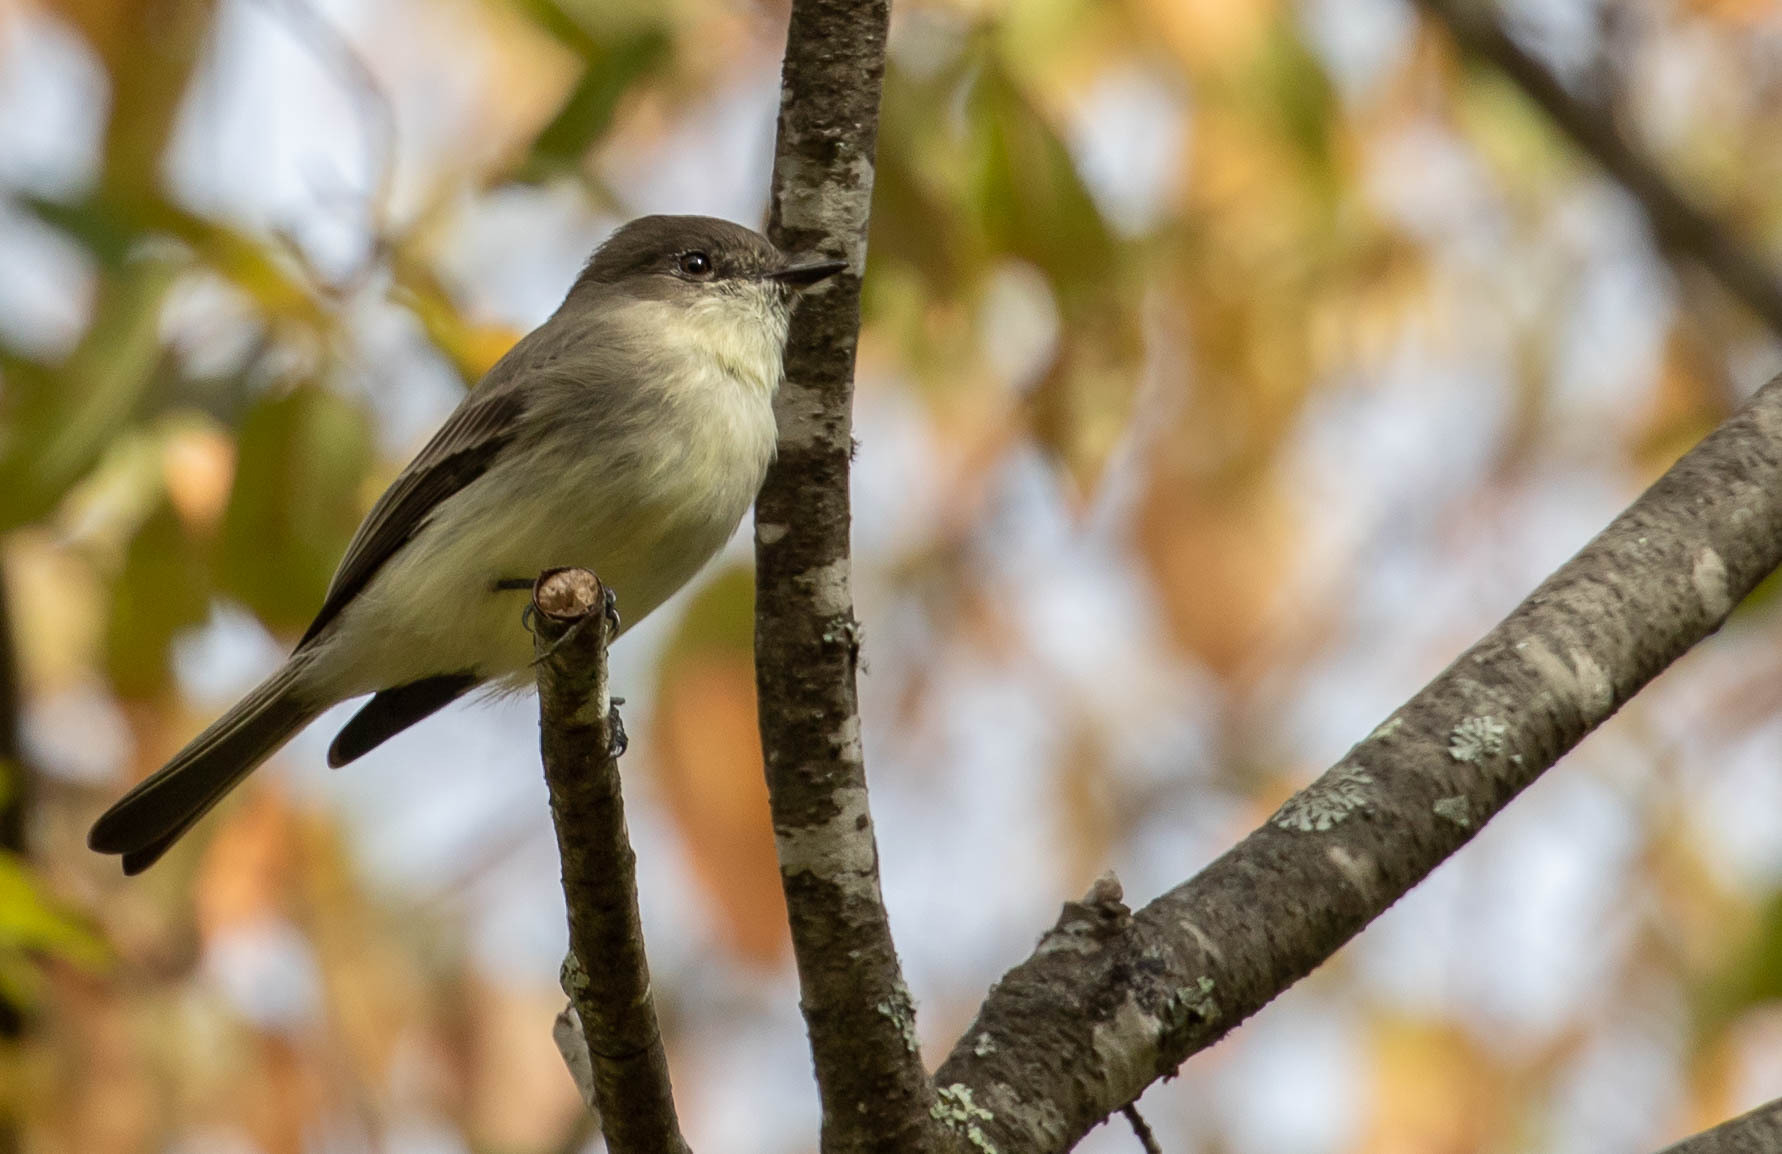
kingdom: Animalia
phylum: Chordata
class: Aves
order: Passeriformes
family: Tyrannidae
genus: Sayornis
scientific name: Sayornis phoebe
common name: Eastern phoebe
